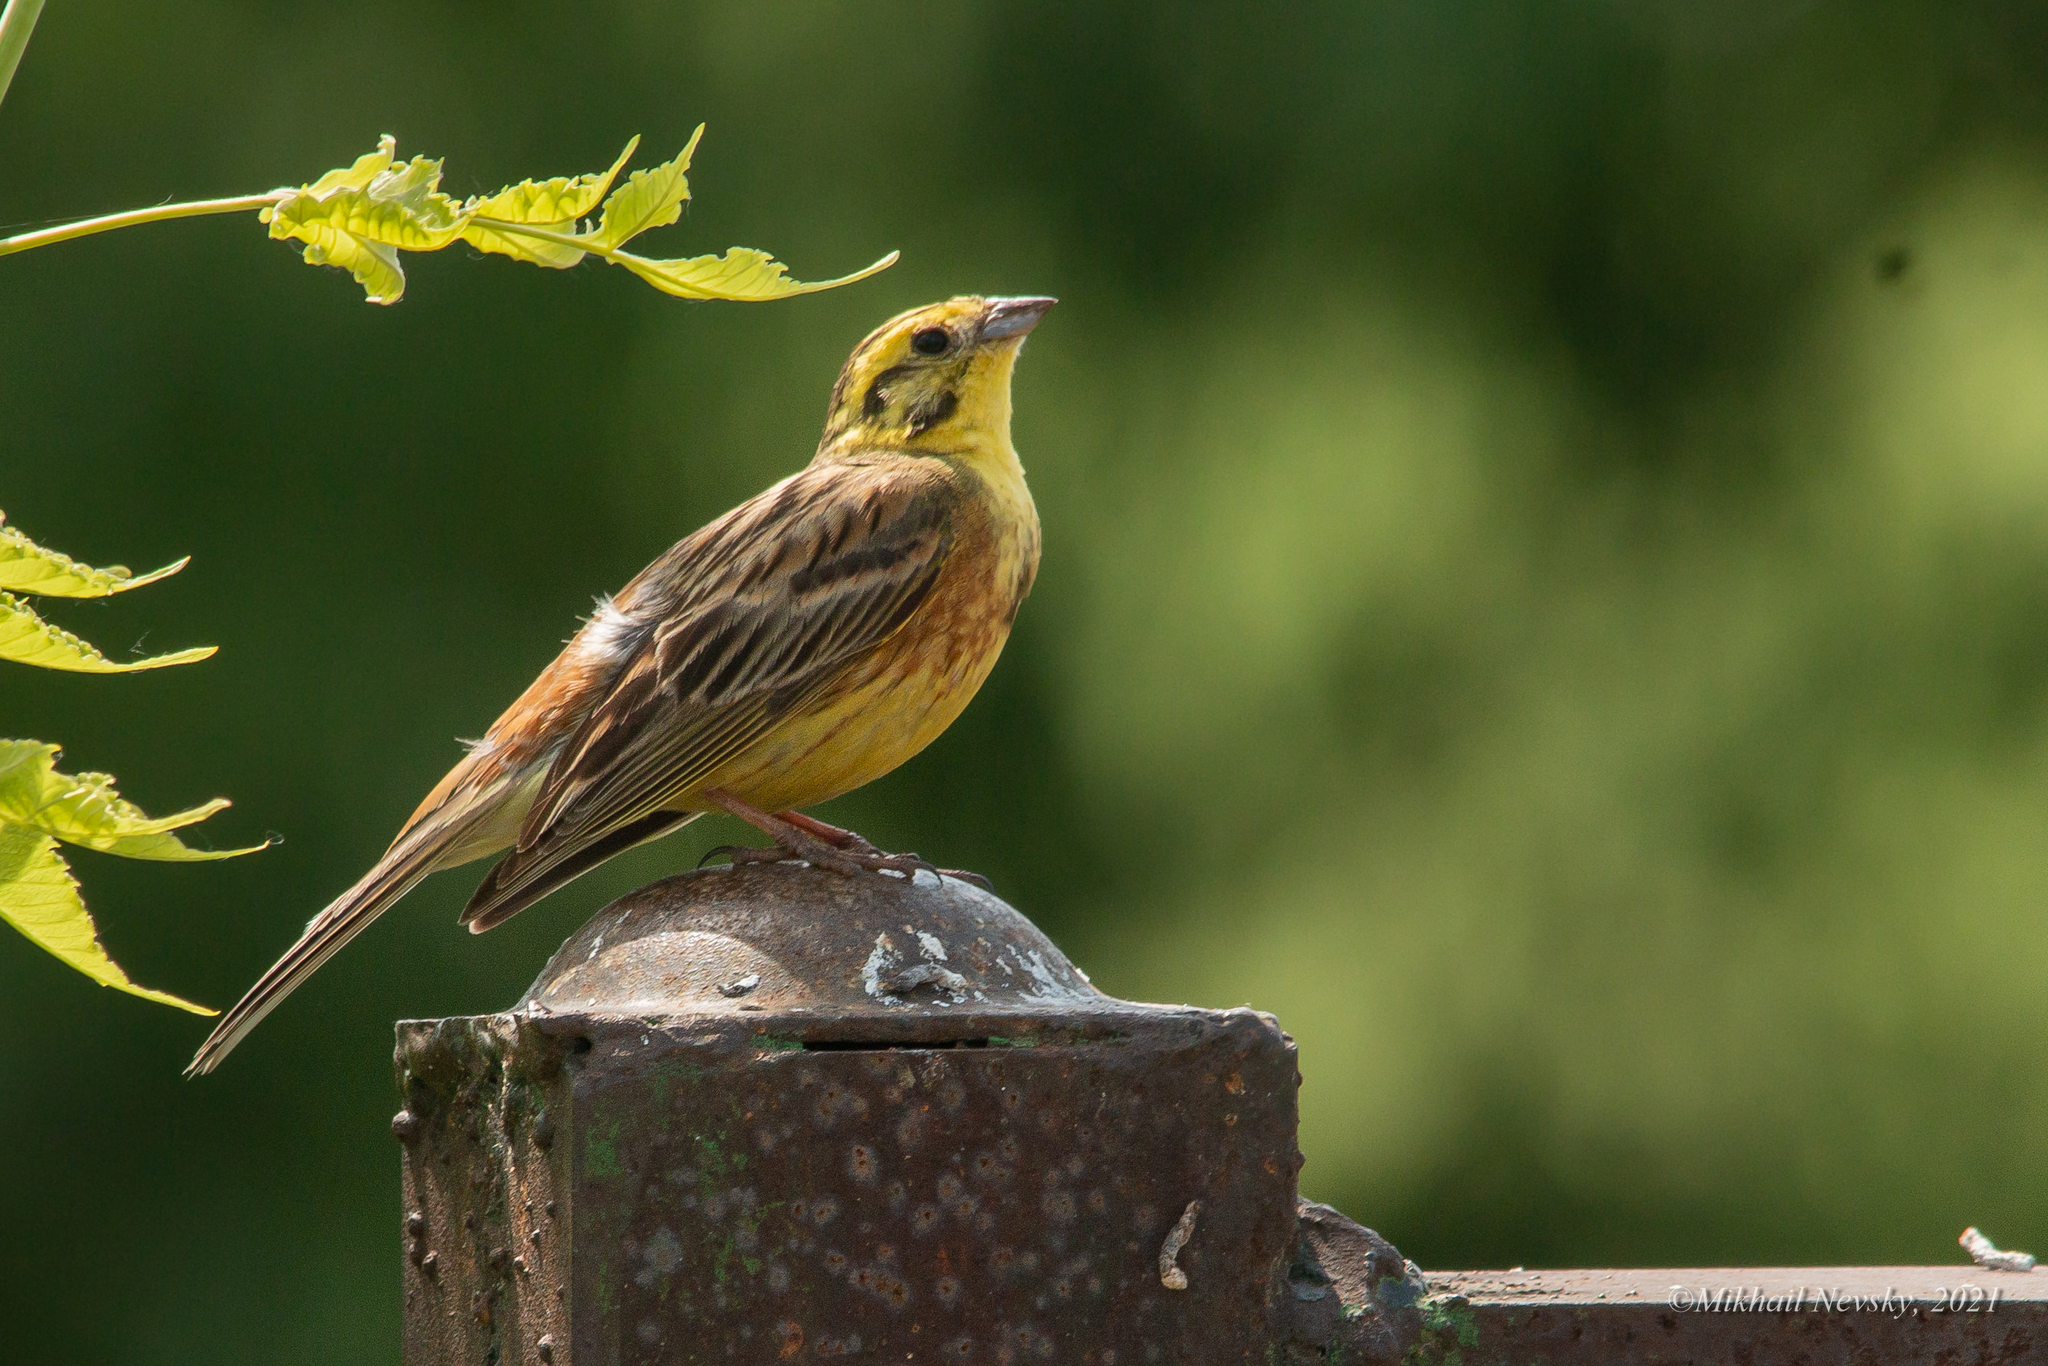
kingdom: Animalia
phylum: Chordata
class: Aves
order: Passeriformes
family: Emberizidae
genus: Emberiza
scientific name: Emberiza citrinella
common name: Yellowhammer
